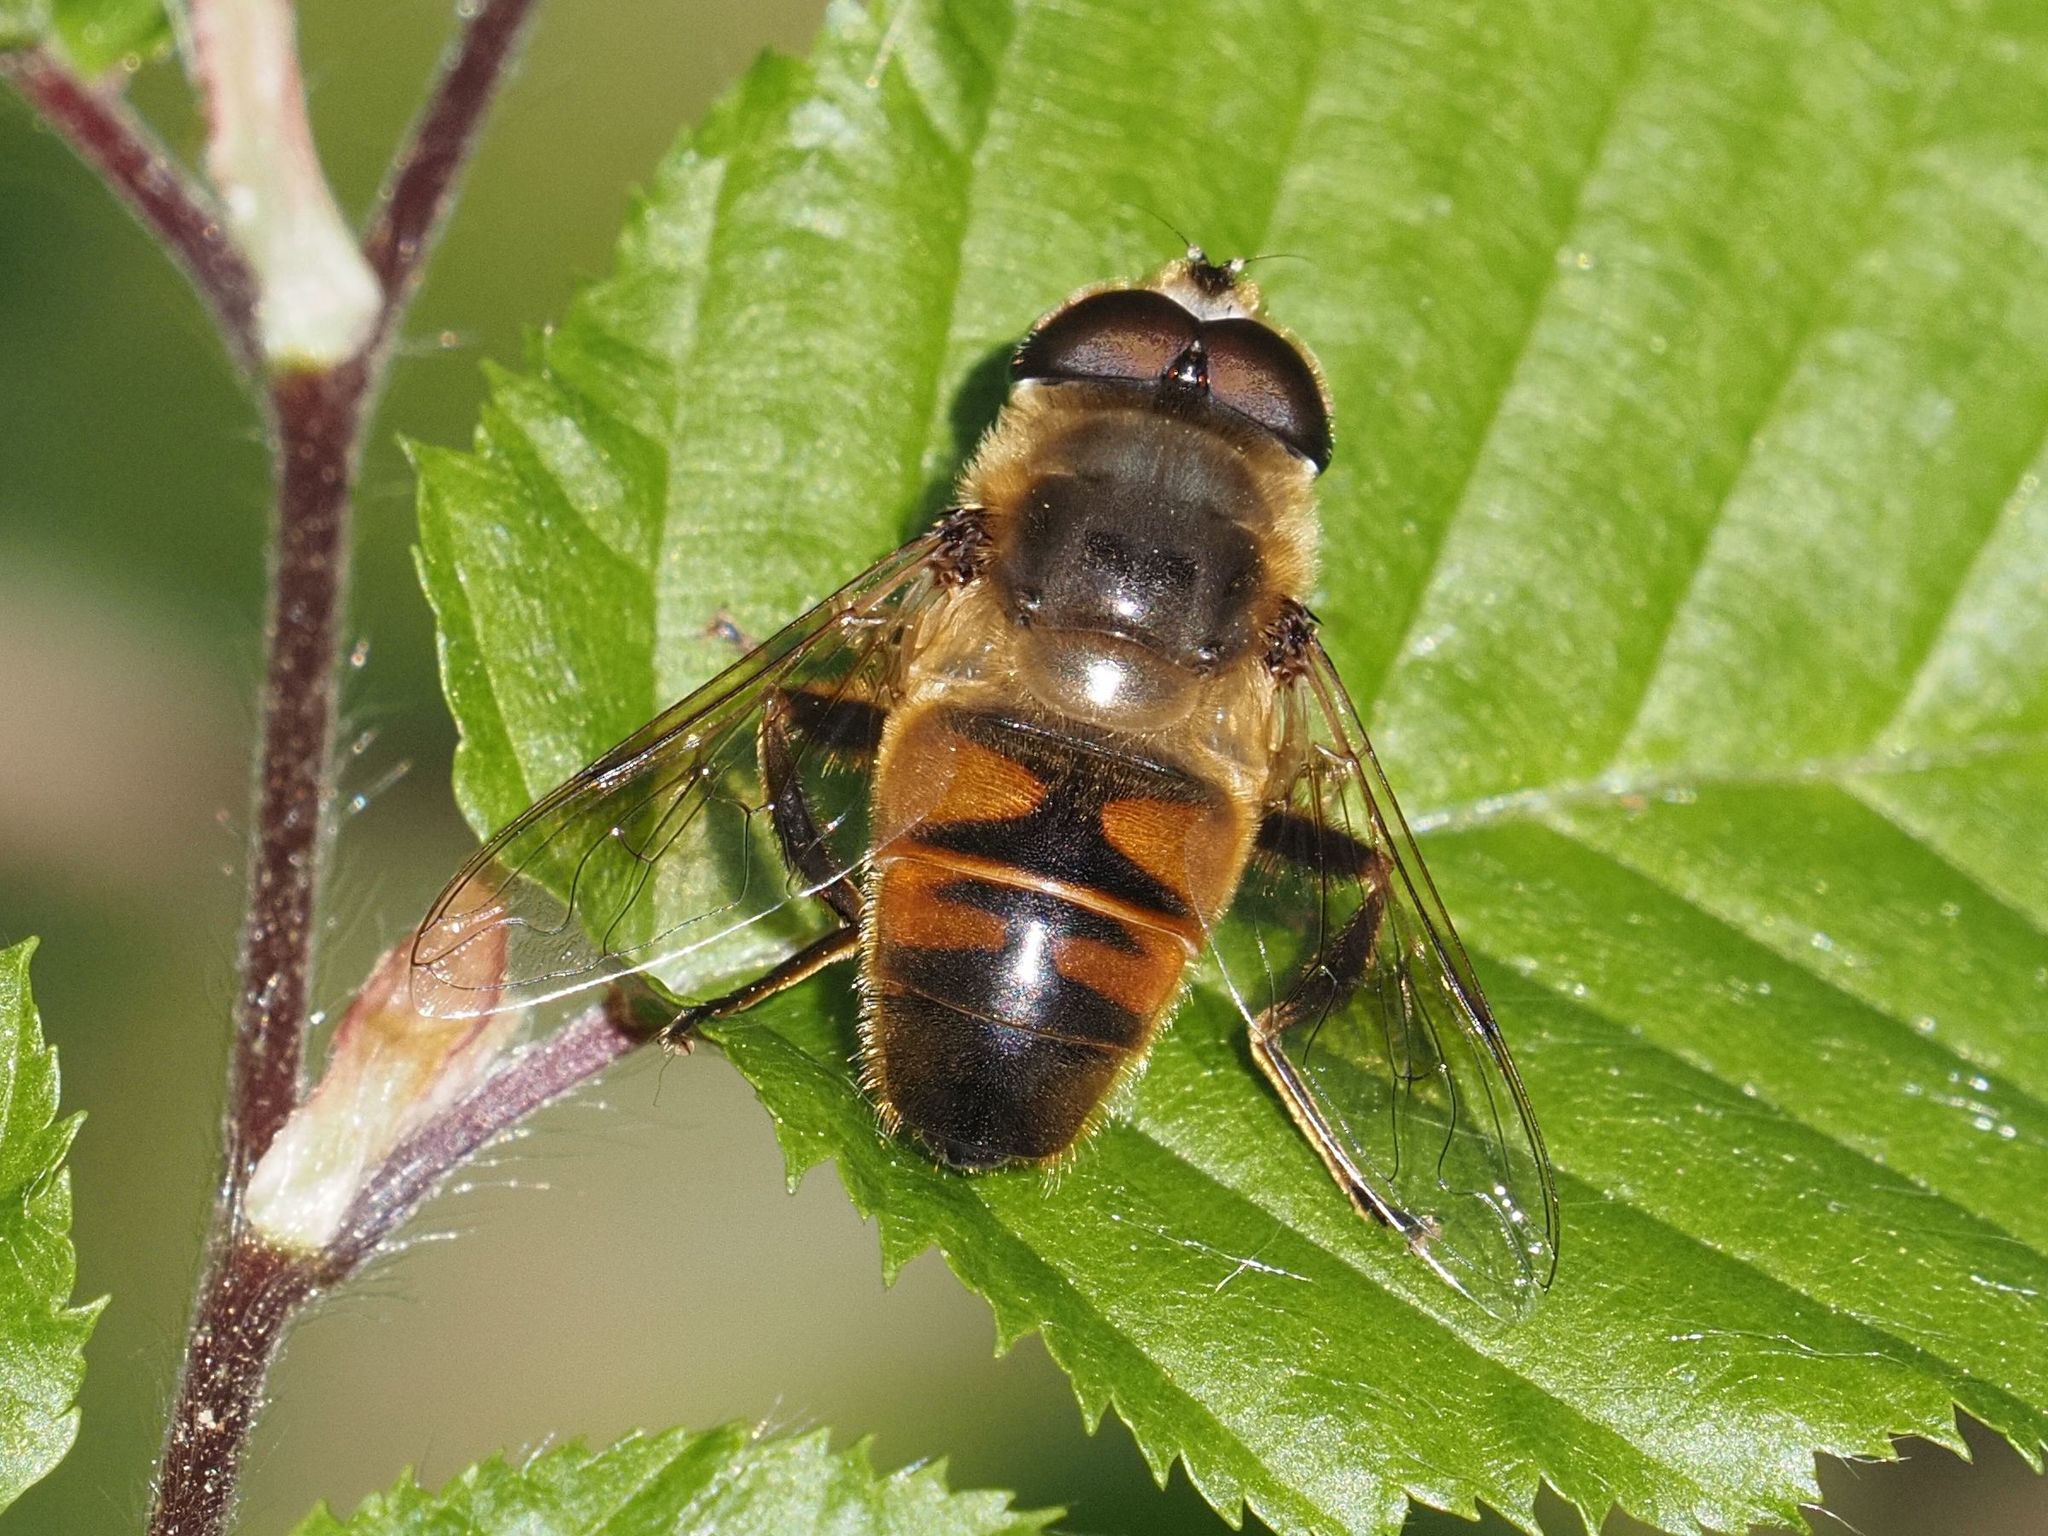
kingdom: Animalia
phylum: Arthropoda
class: Insecta
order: Diptera
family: Syrphidae
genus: Eristalis
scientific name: Eristalis tenax
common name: Drone fly
